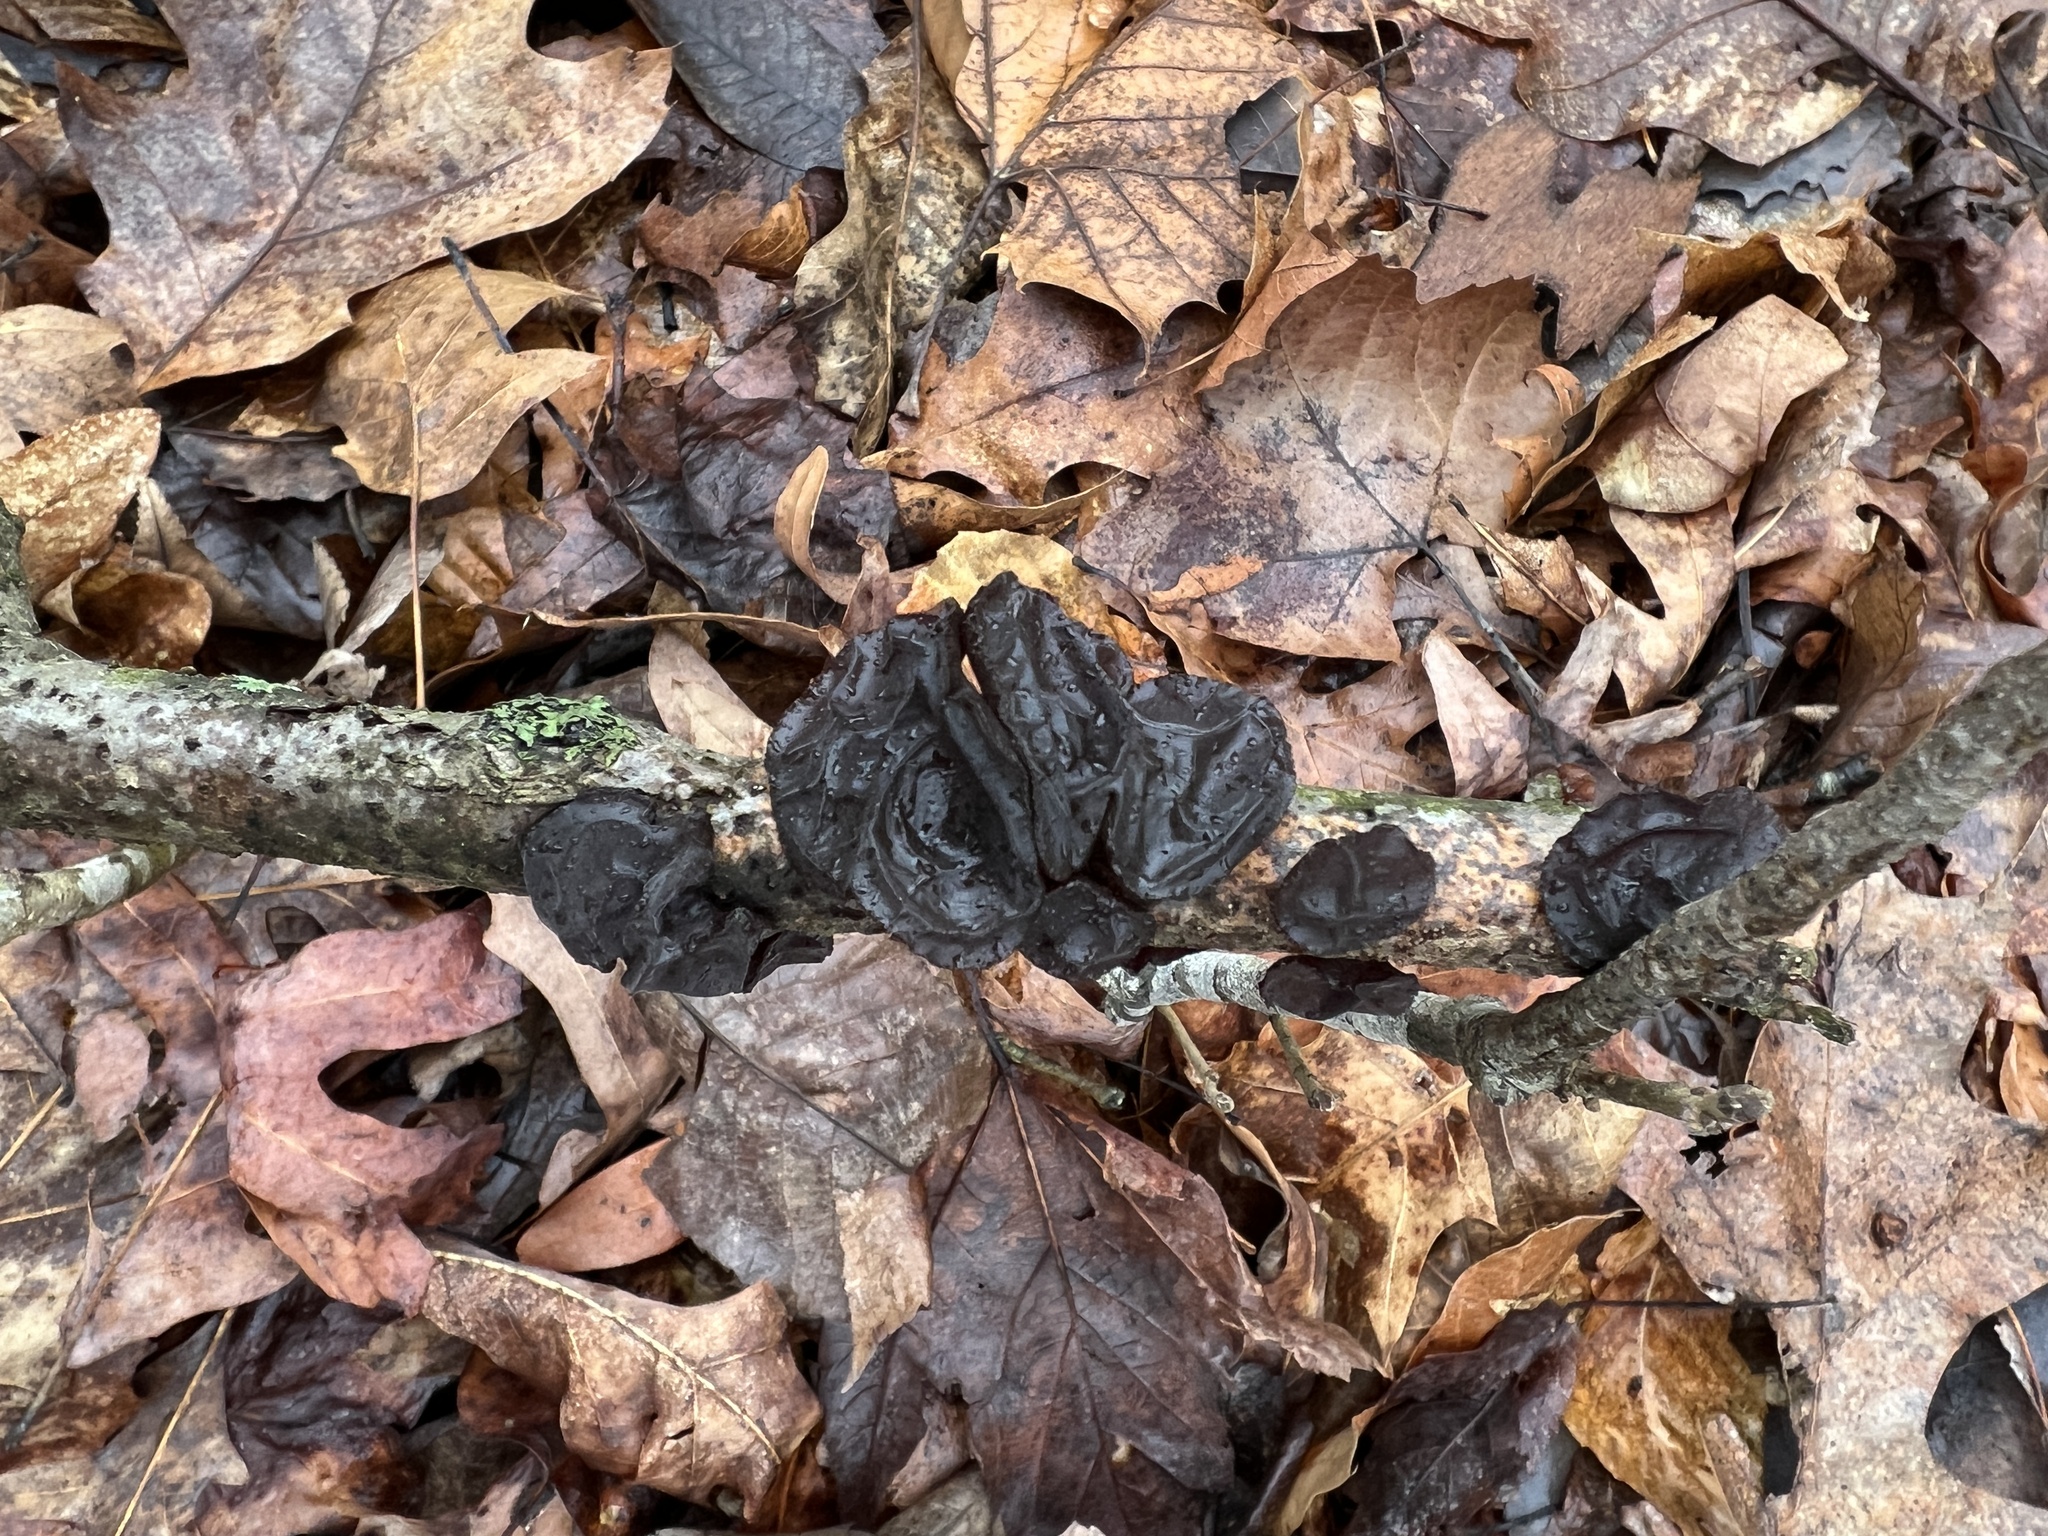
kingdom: Fungi
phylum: Basidiomycota
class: Agaricomycetes
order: Auriculariales
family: Auriculariaceae
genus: Exidia
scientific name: Exidia
